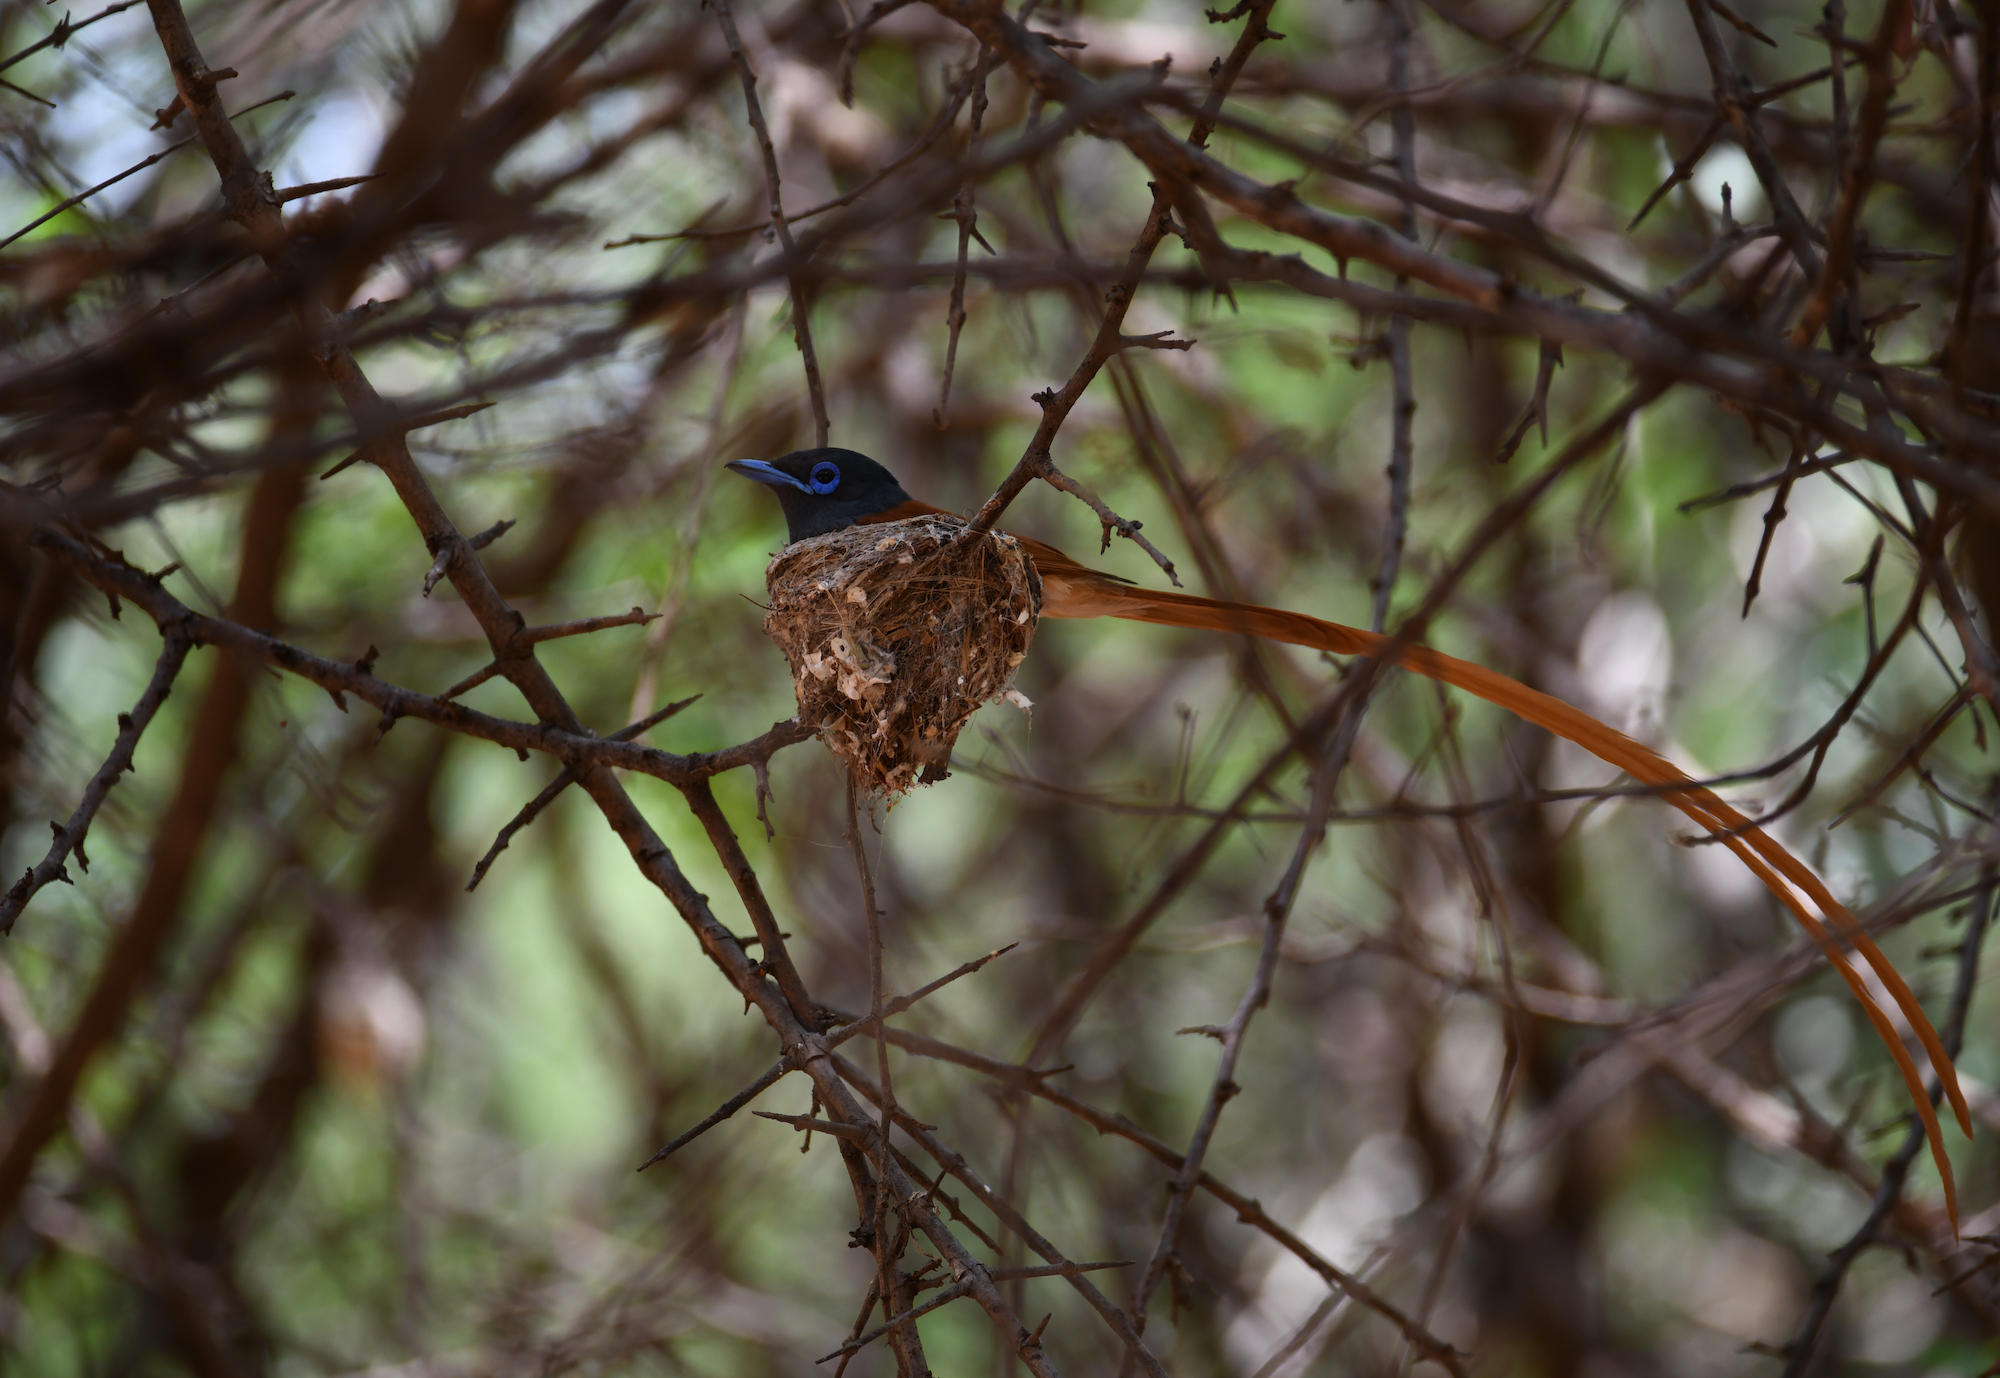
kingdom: Animalia
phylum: Chordata
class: Aves
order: Passeriformes
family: Monarchidae
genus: Terpsiphone
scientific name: Terpsiphone viridis
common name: African paradise flycatcher
